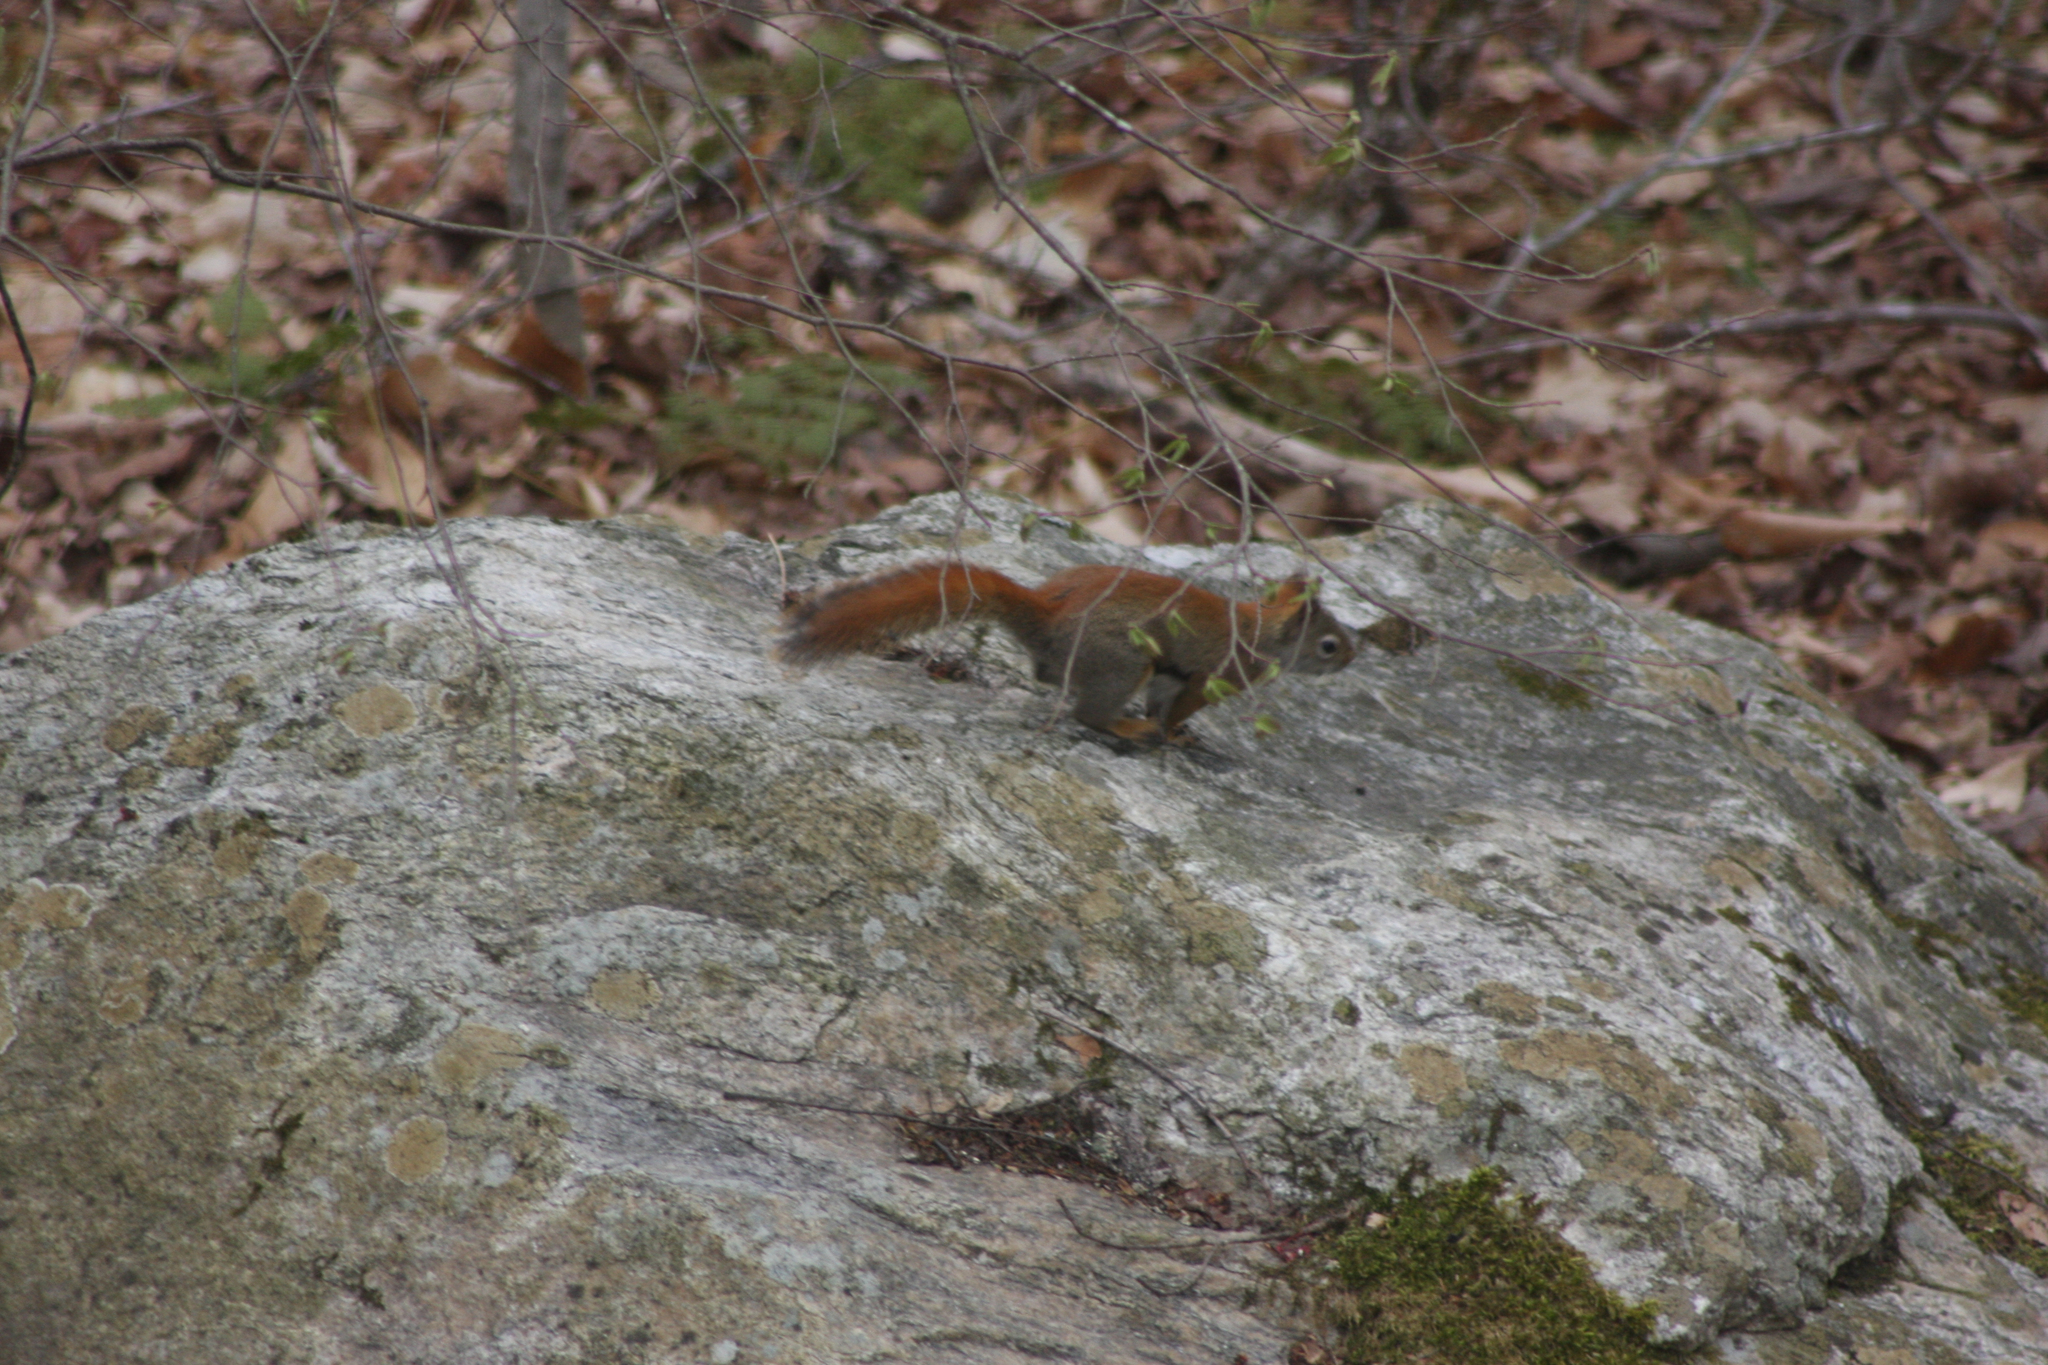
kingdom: Animalia
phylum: Chordata
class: Mammalia
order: Rodentia
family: Sciuridae
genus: Tamiasciurus
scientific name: Tamiasciurus hudsonicus
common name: Red squirrel
